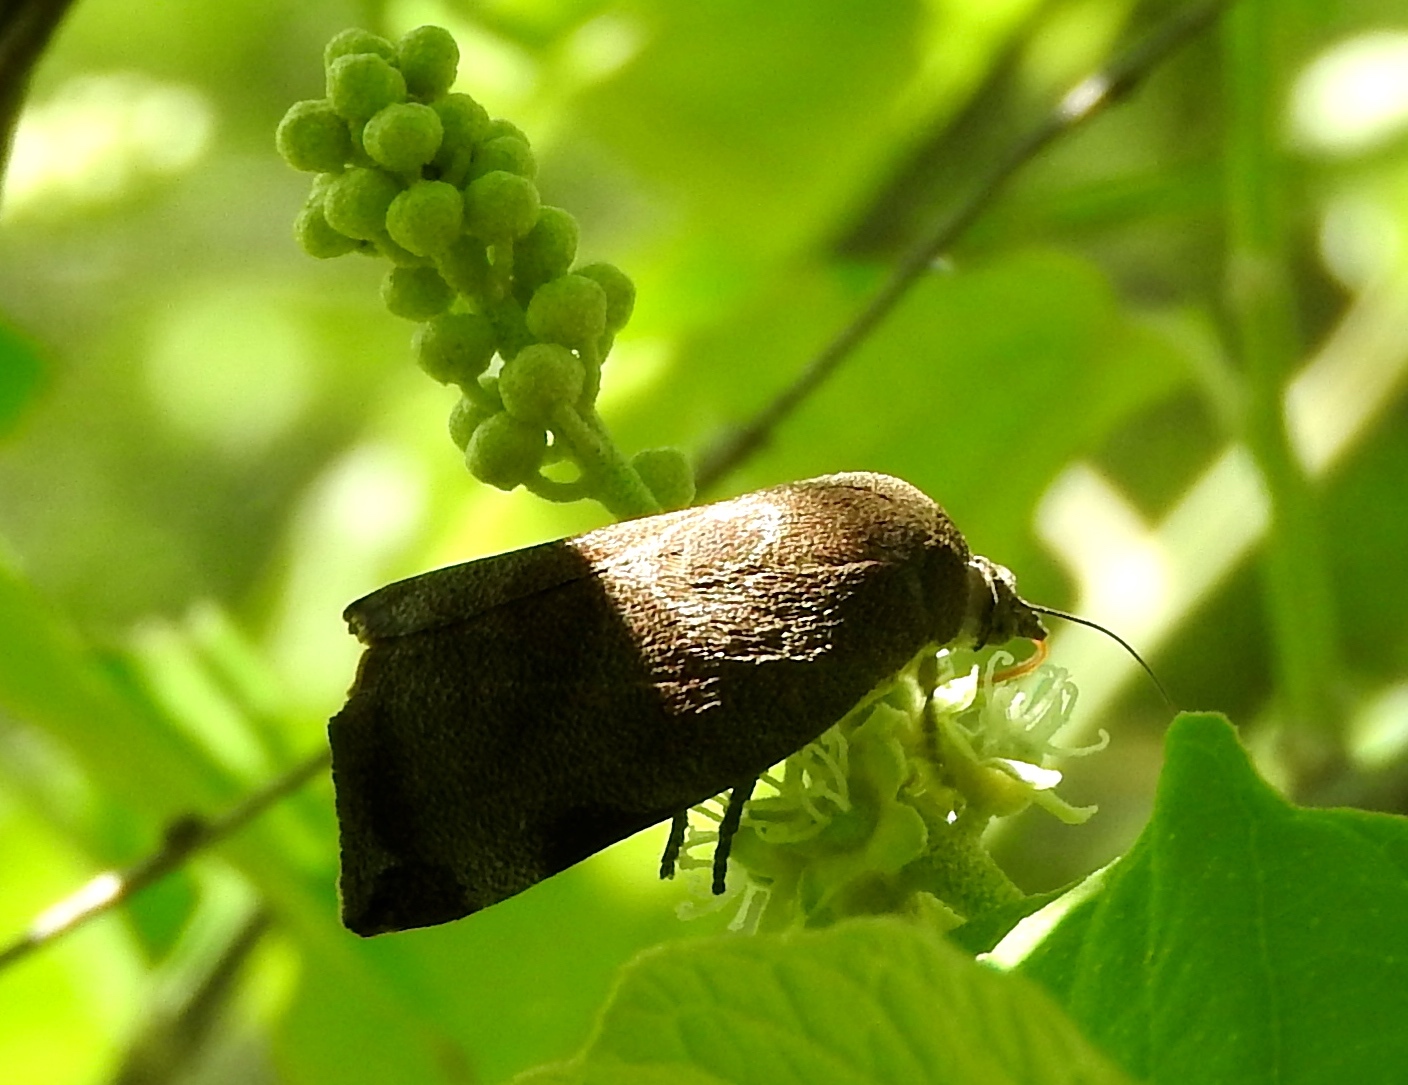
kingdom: Animalia
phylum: Arthropoda
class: Insecta
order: Lepidoptera
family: Hyblaeidae
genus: Hyblaea
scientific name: Hyblaea
